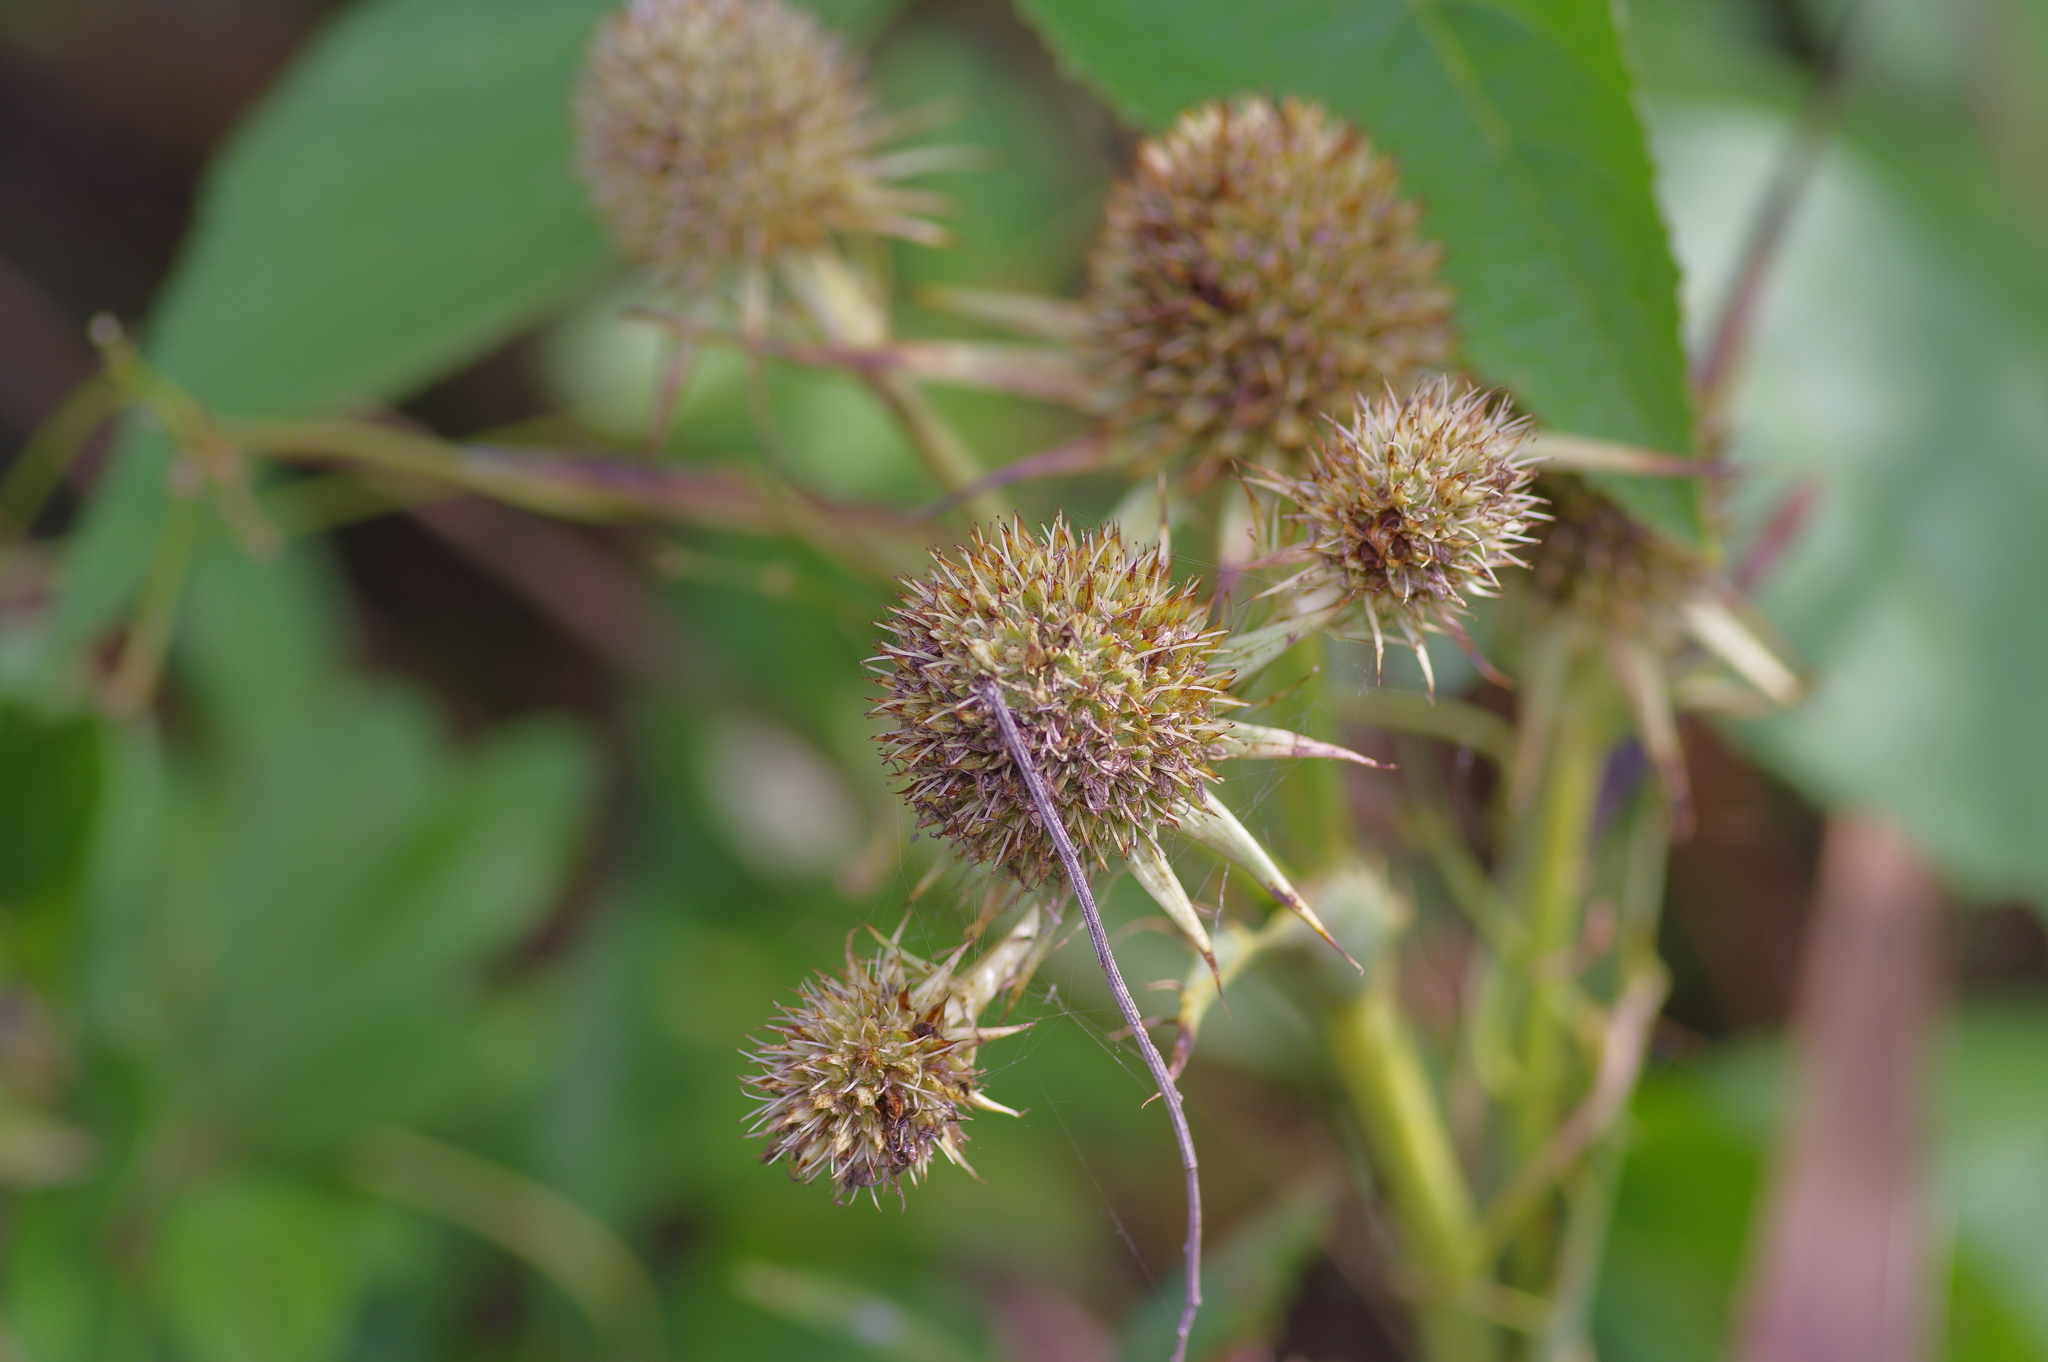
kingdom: Plantae
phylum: Tracheophyta
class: Magnoliopsida
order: Apiales
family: Apiaceae
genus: Eryngium
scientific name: Eryngium yuccifolium
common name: Button eryngo
